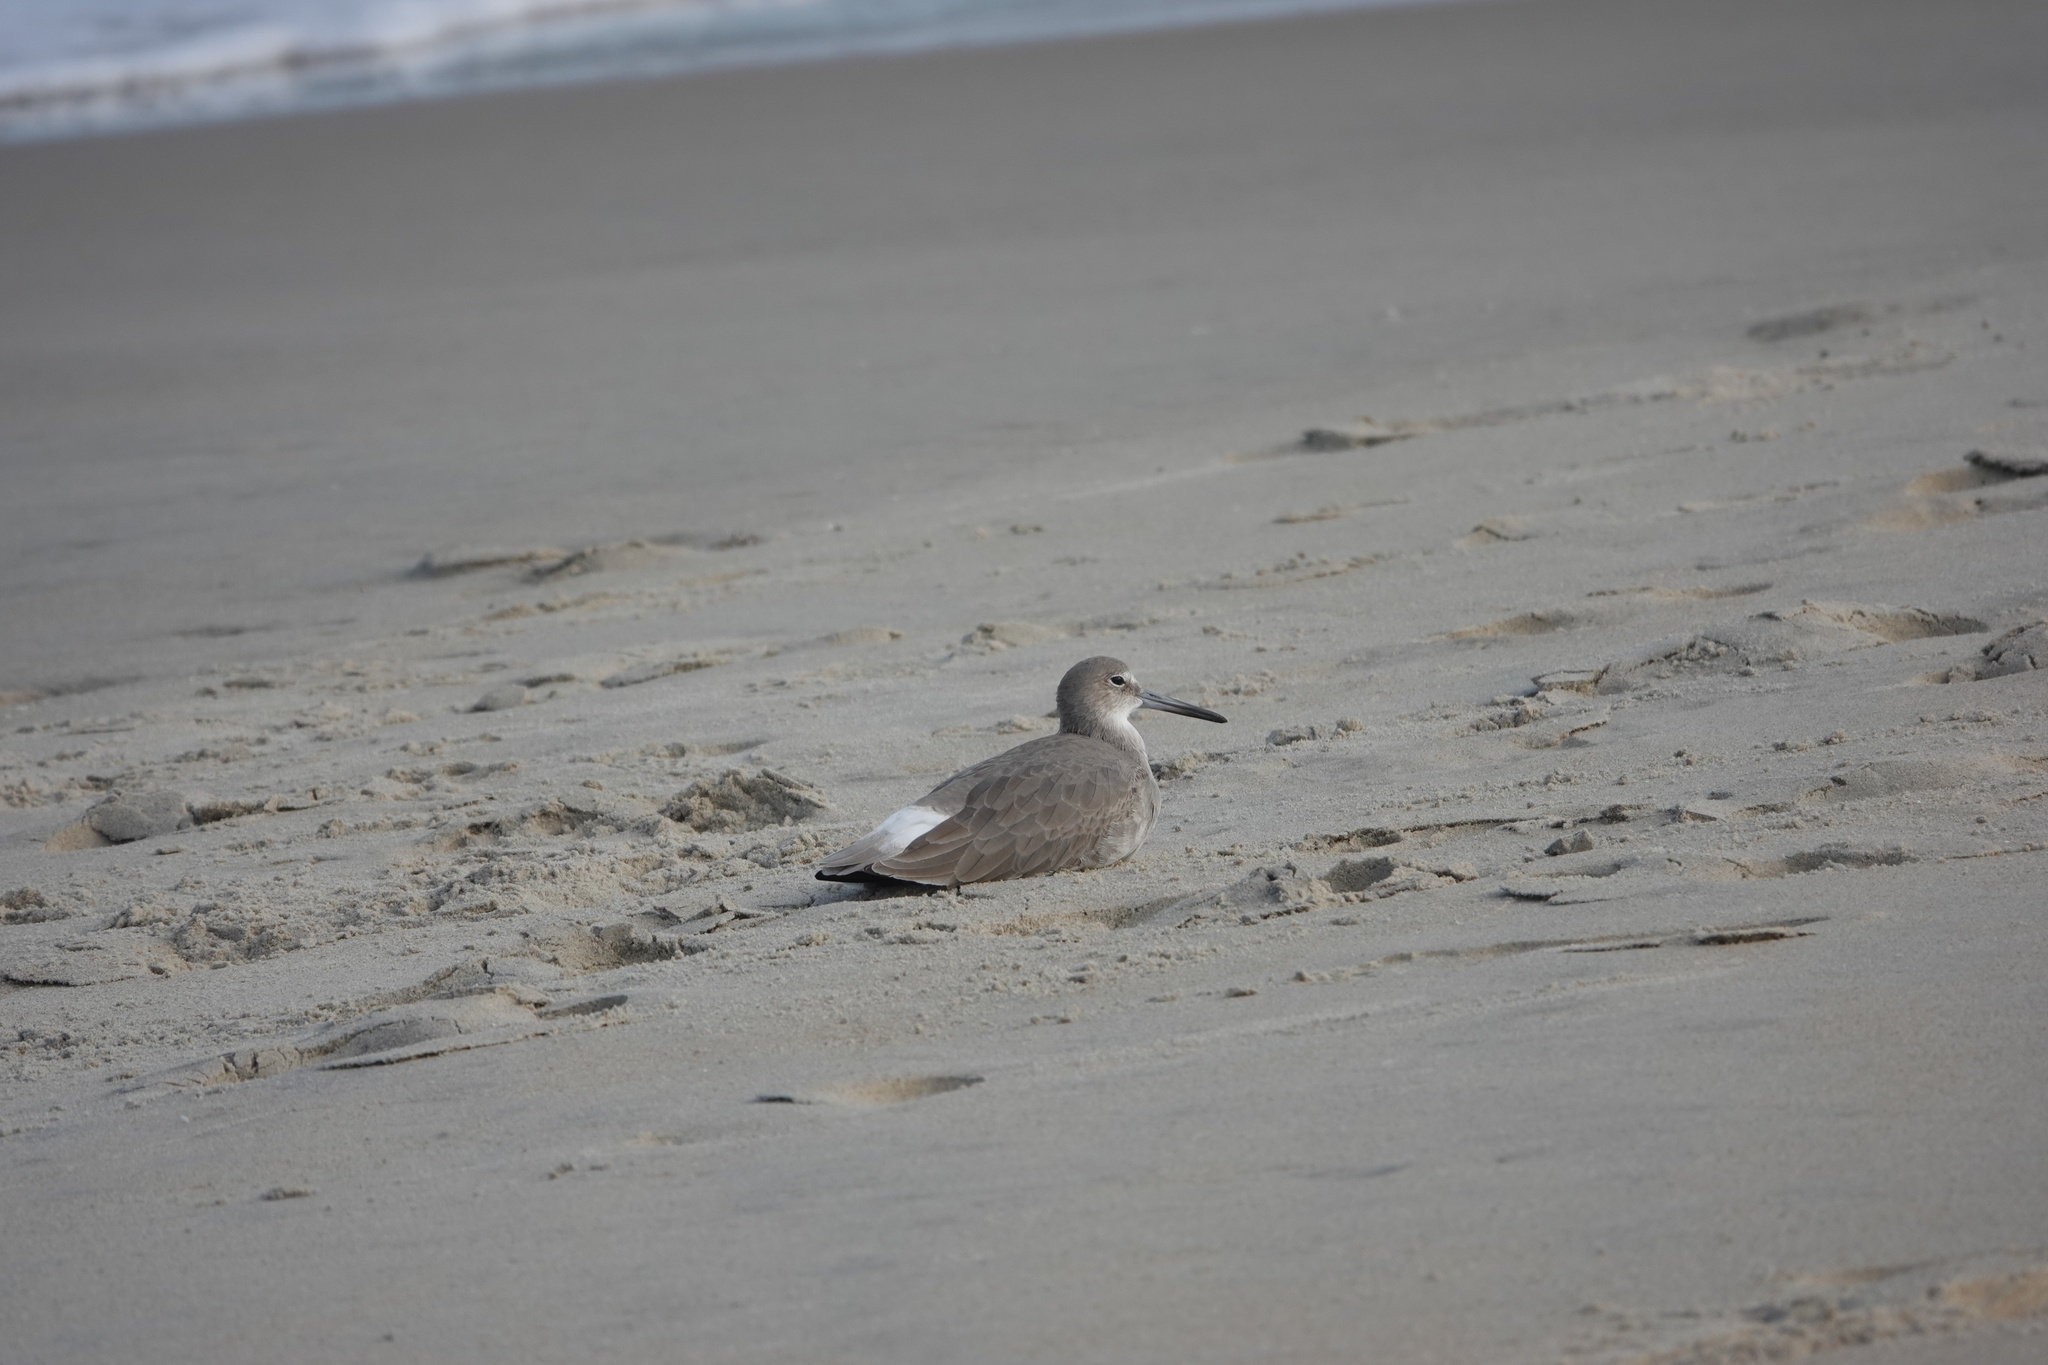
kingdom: Animalia
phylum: Chordata
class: Aves
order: Charadriiformes
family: Scolopacidae
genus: Tringa
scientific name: Tringa semipalmata
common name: Willet
